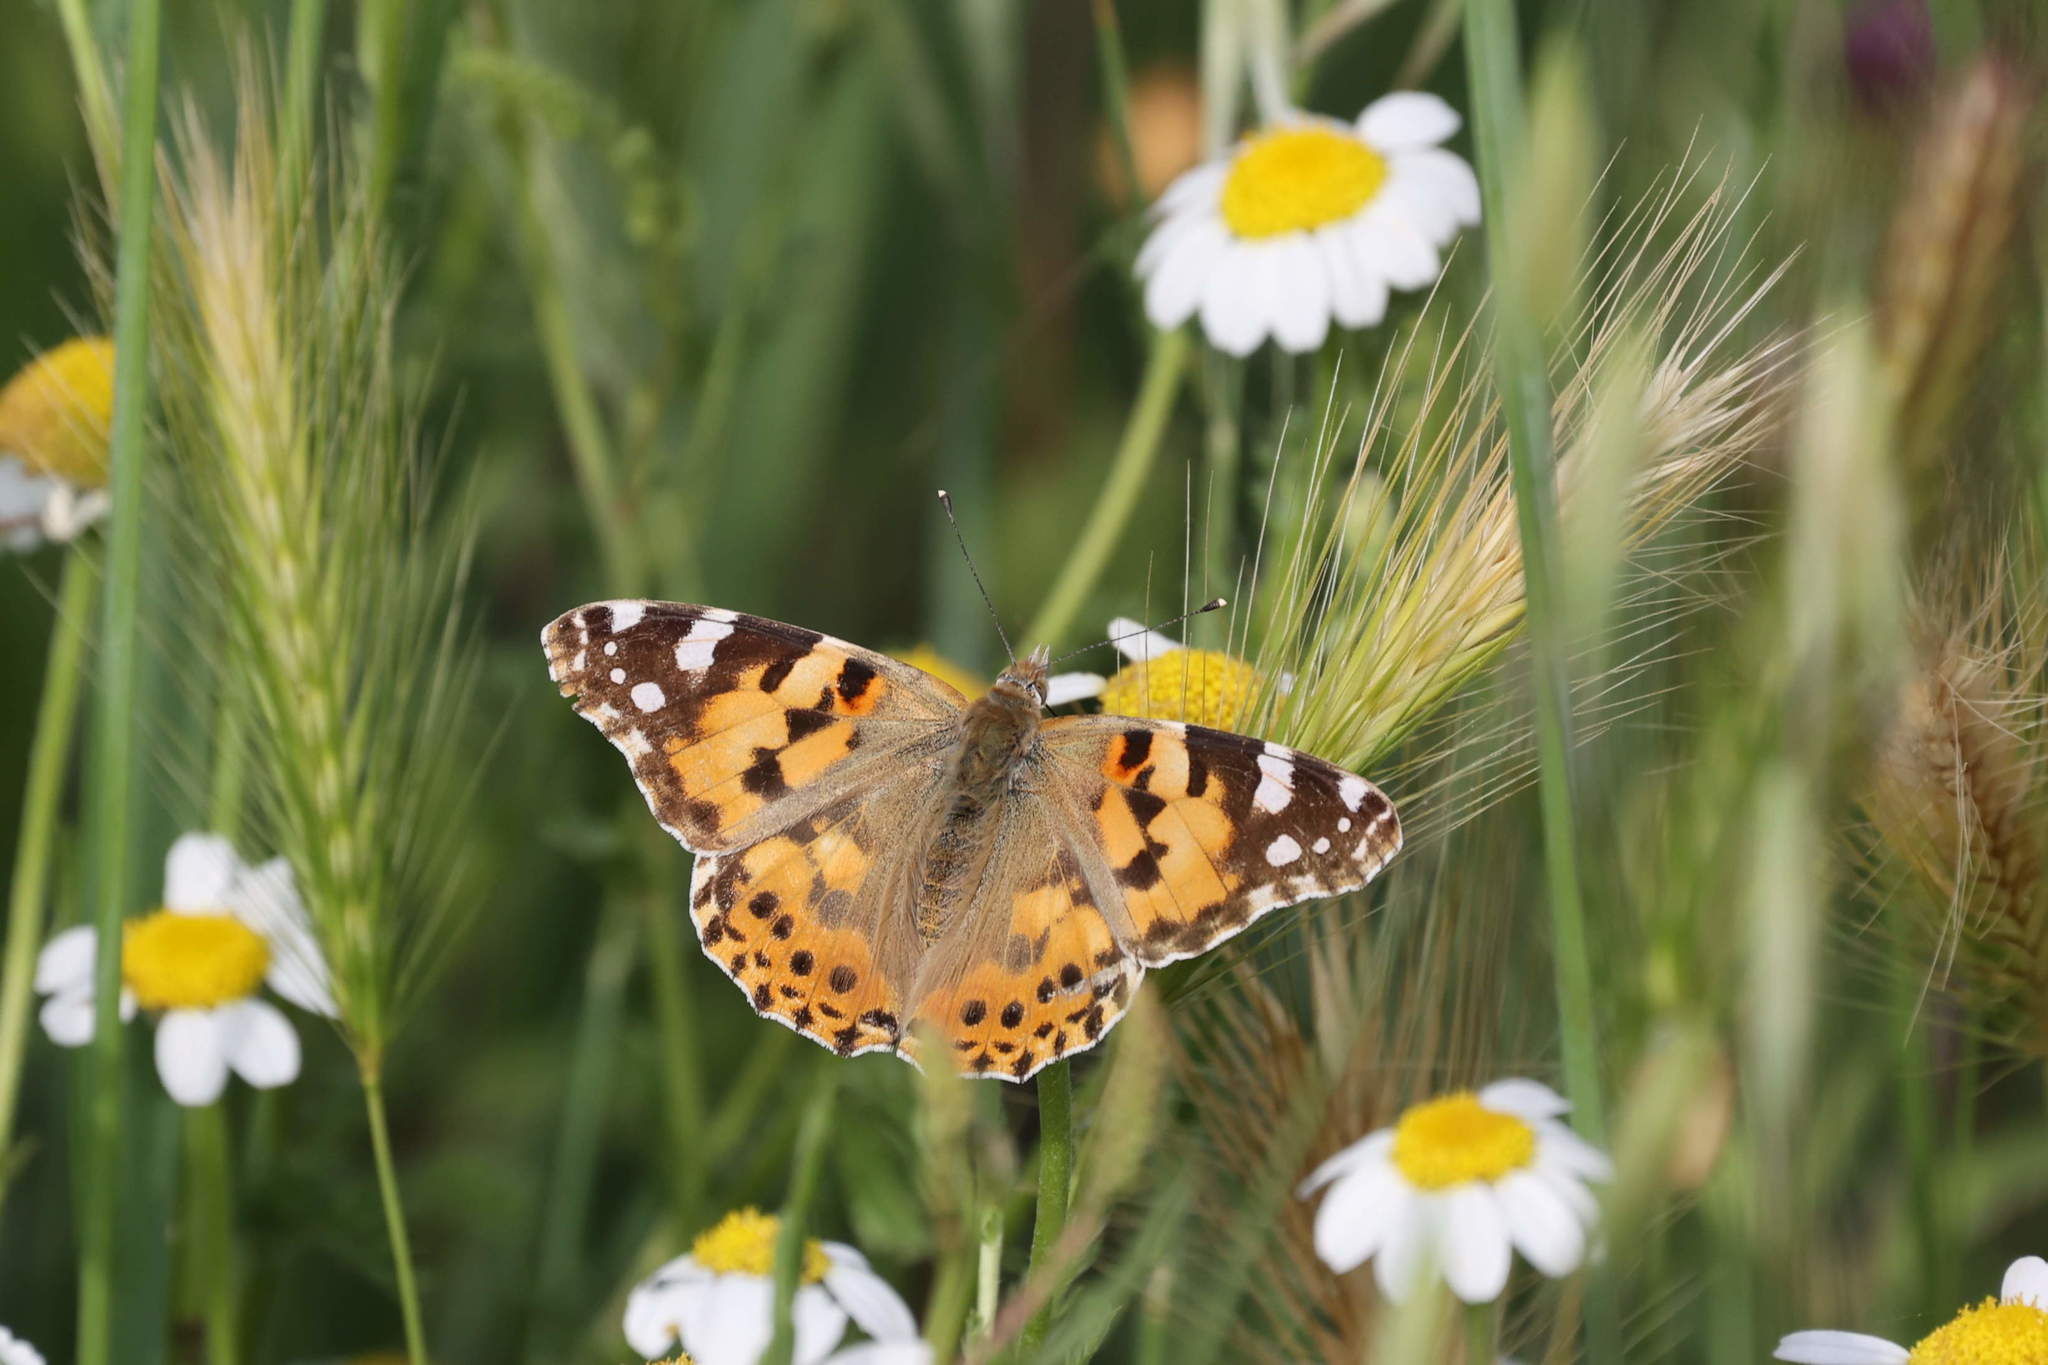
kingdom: Animalia
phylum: Arthropoda
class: Insecta
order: Lepidoptera
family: Nymphalidae
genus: Vanessa
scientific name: Vanessa cardui
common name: Painted lady
